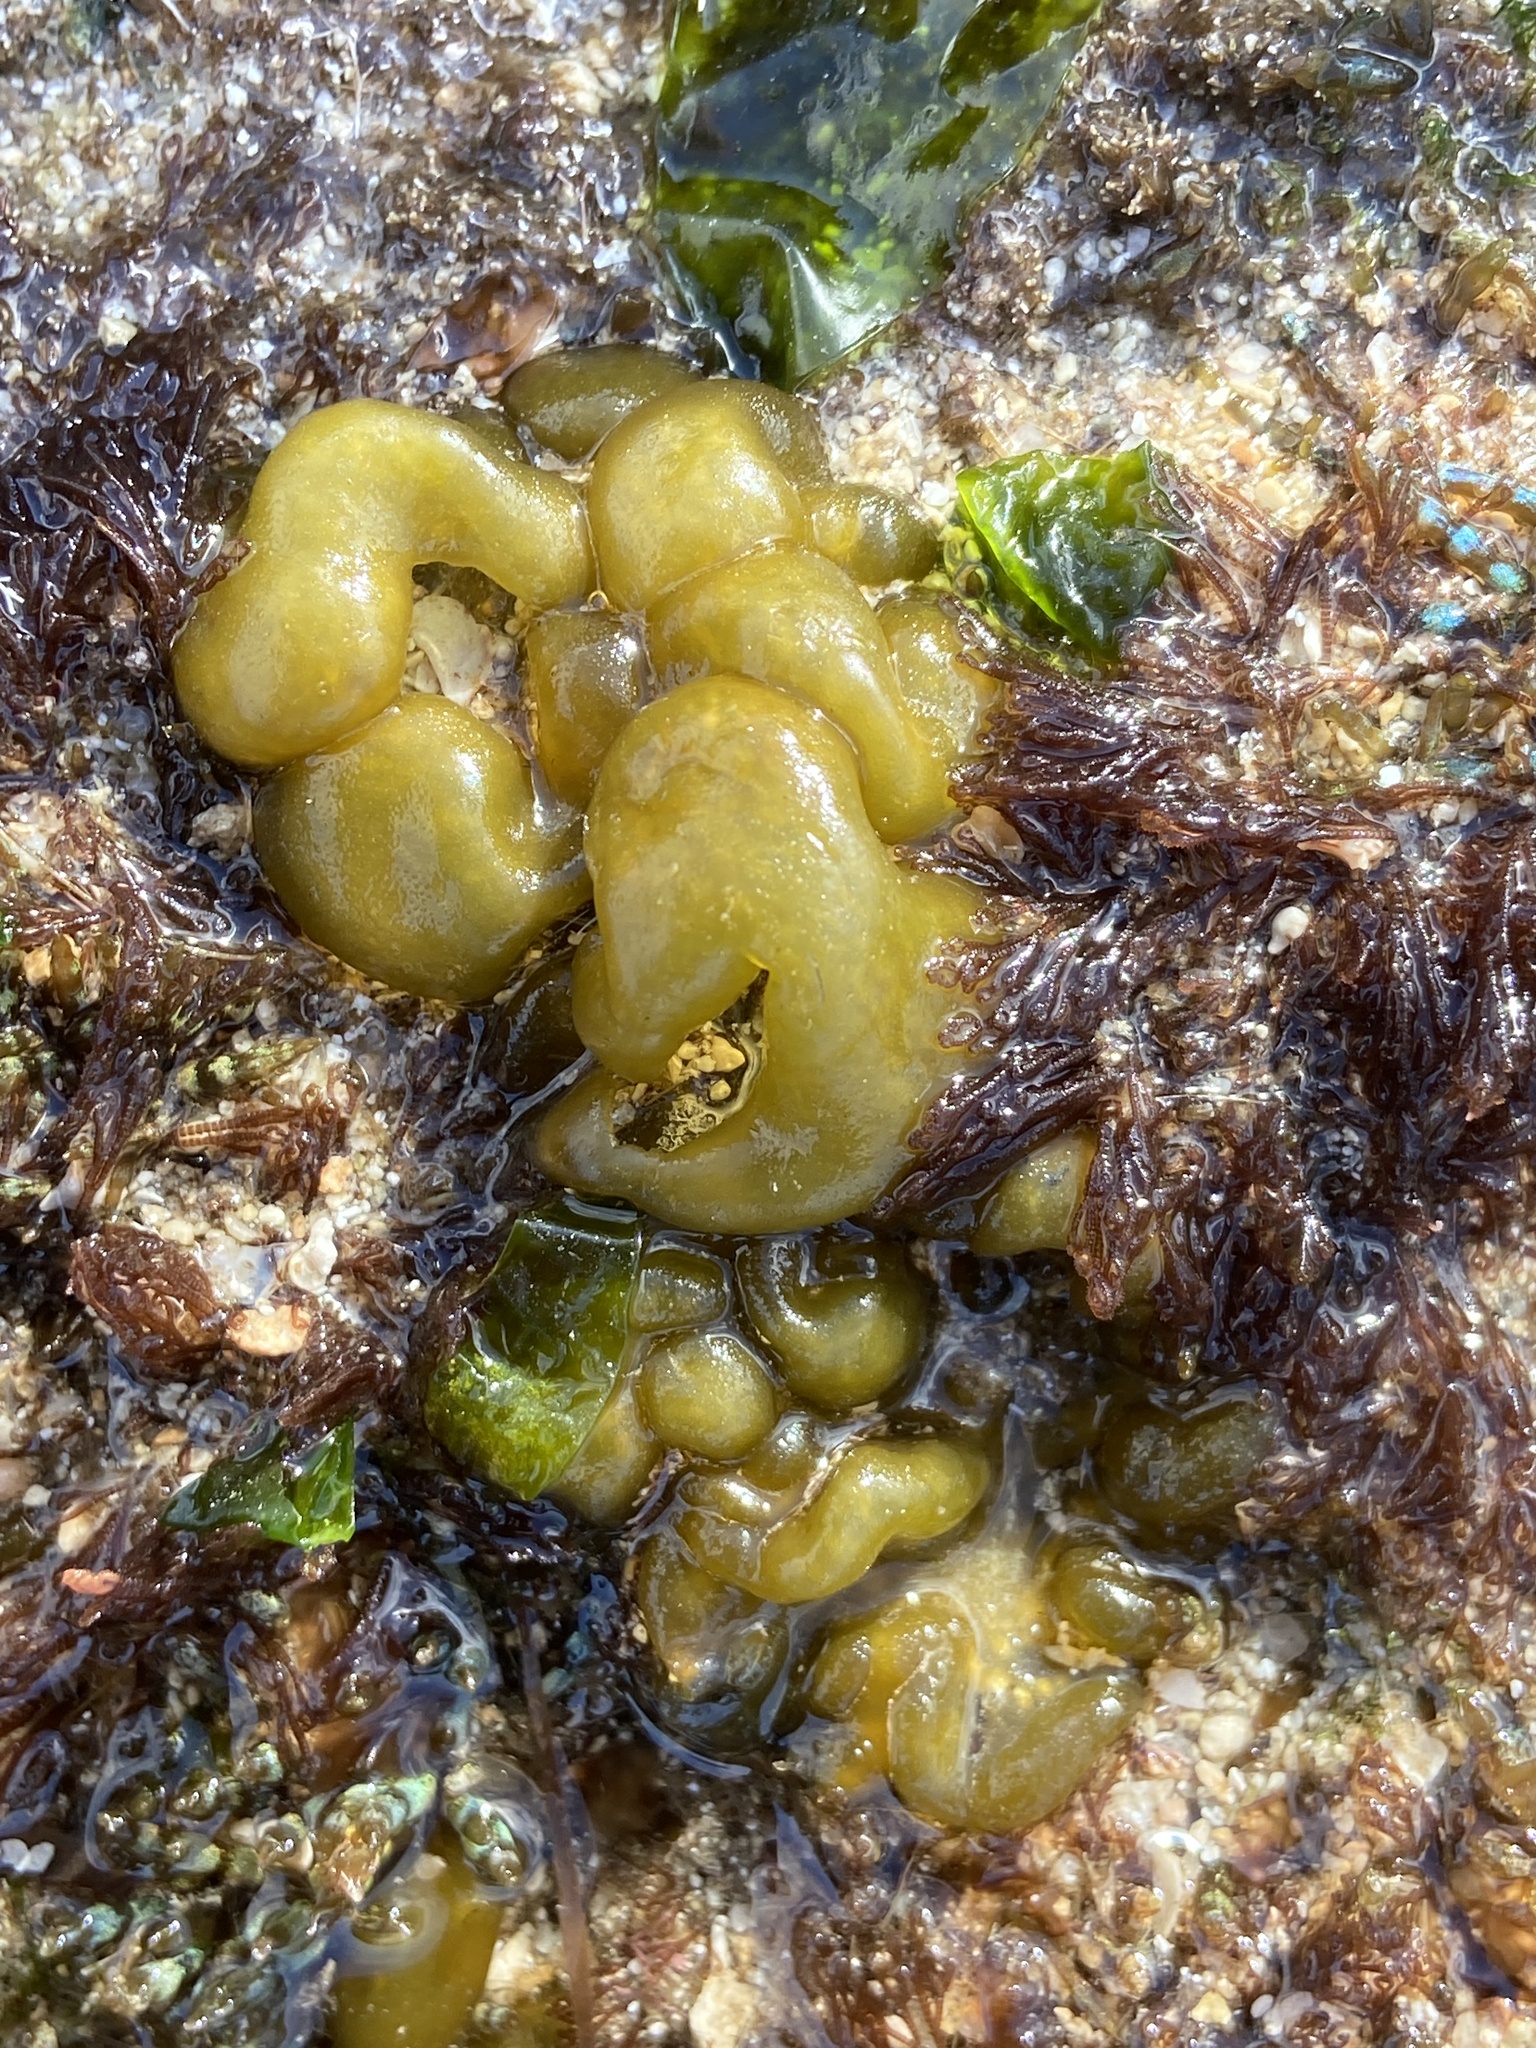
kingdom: Chromista
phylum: Ochrophyta
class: Phaeophyceae
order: Scytosiphonales
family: Scytosiphonaceae
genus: Colpomenia
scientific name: Colpomenia sinuosa
